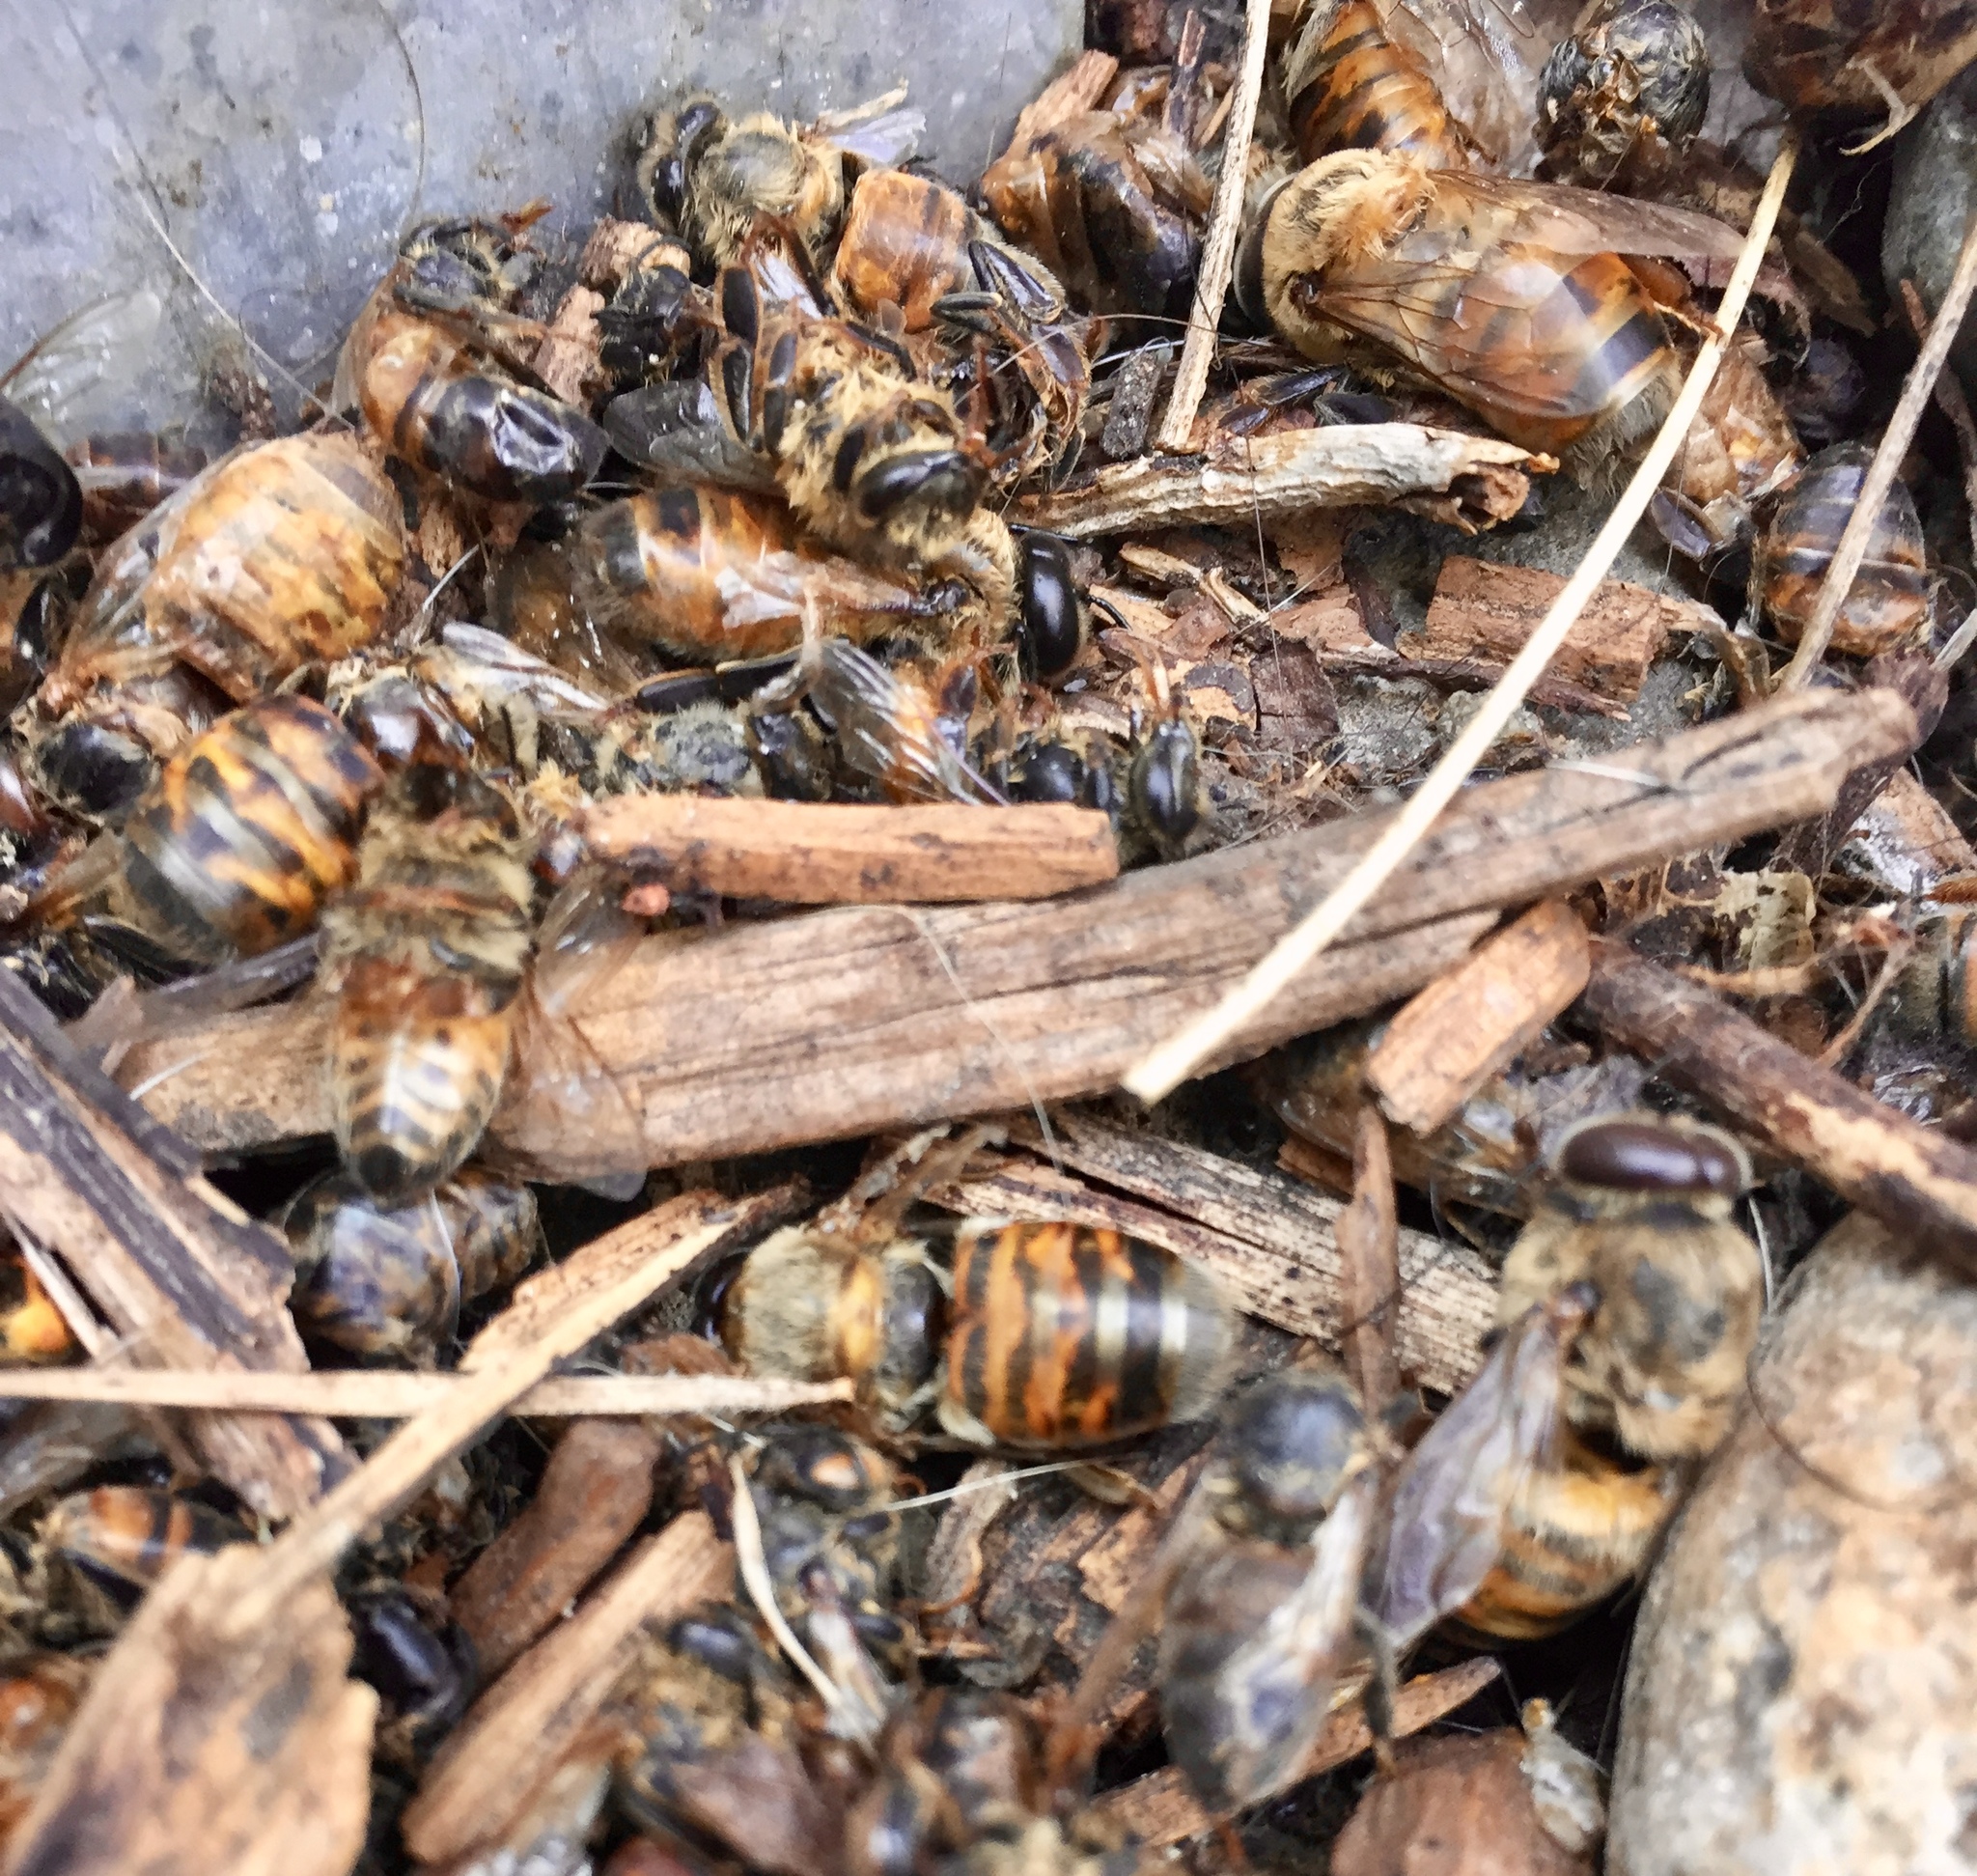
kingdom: Animalia
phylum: Arthropoda
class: Insecta
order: Hymenoptera
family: Apidae
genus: Apis
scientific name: Apis mellifera
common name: Honey bee
